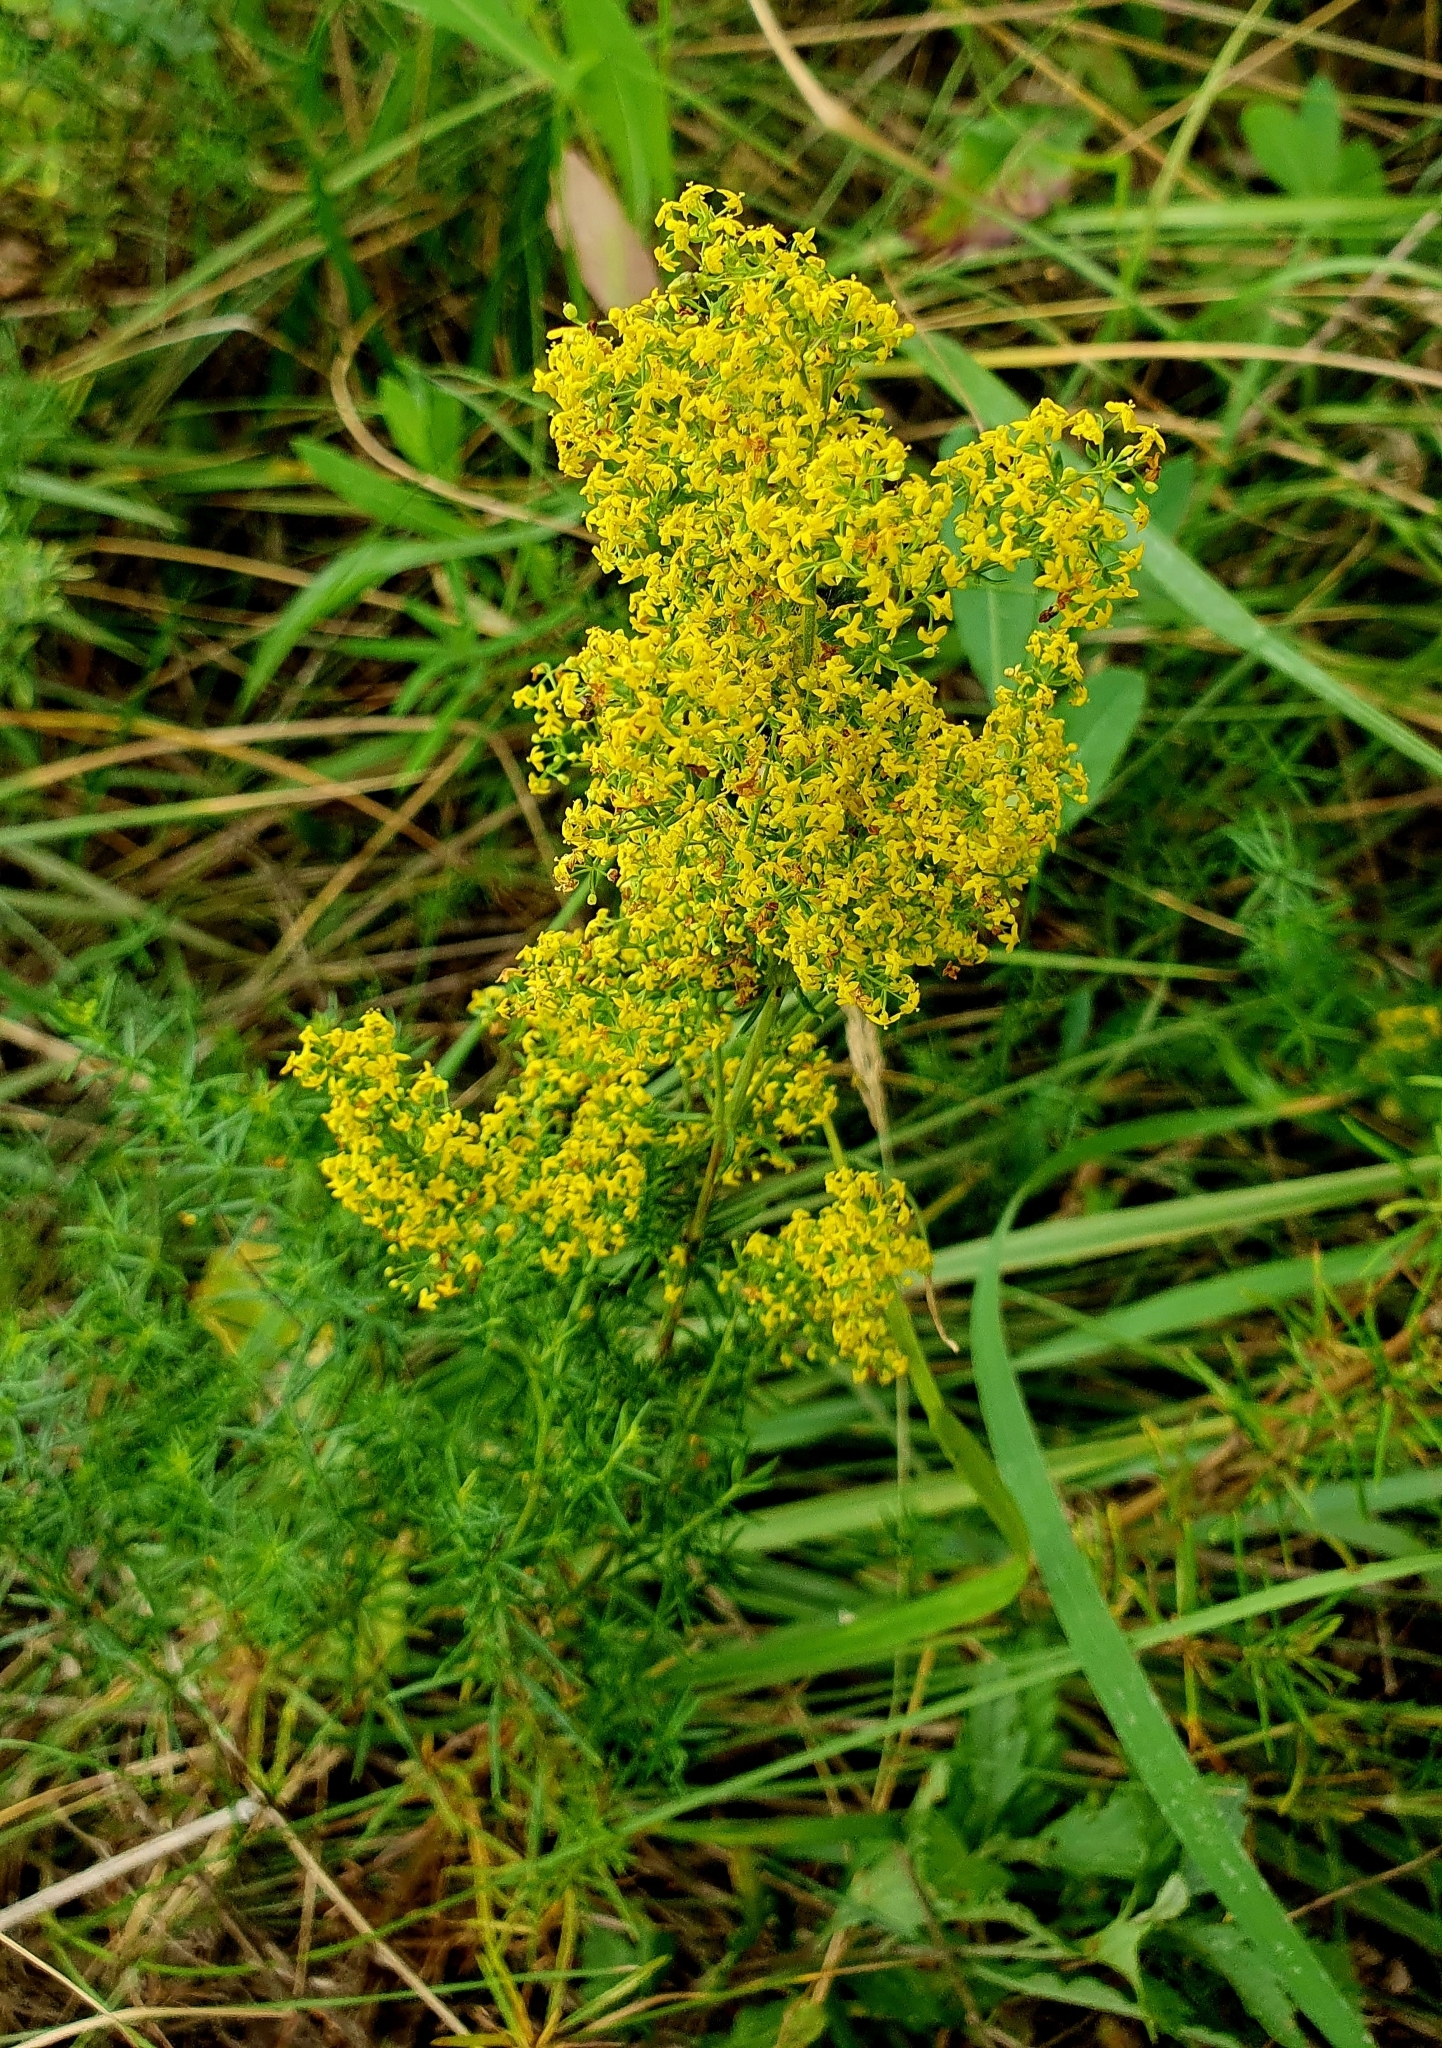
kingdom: Plantae
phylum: Tracheophyta
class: Magnoliopsida
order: Gentianales
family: Rubiaceae
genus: Galium
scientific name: Galium verum
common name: Lady's bedstraw
